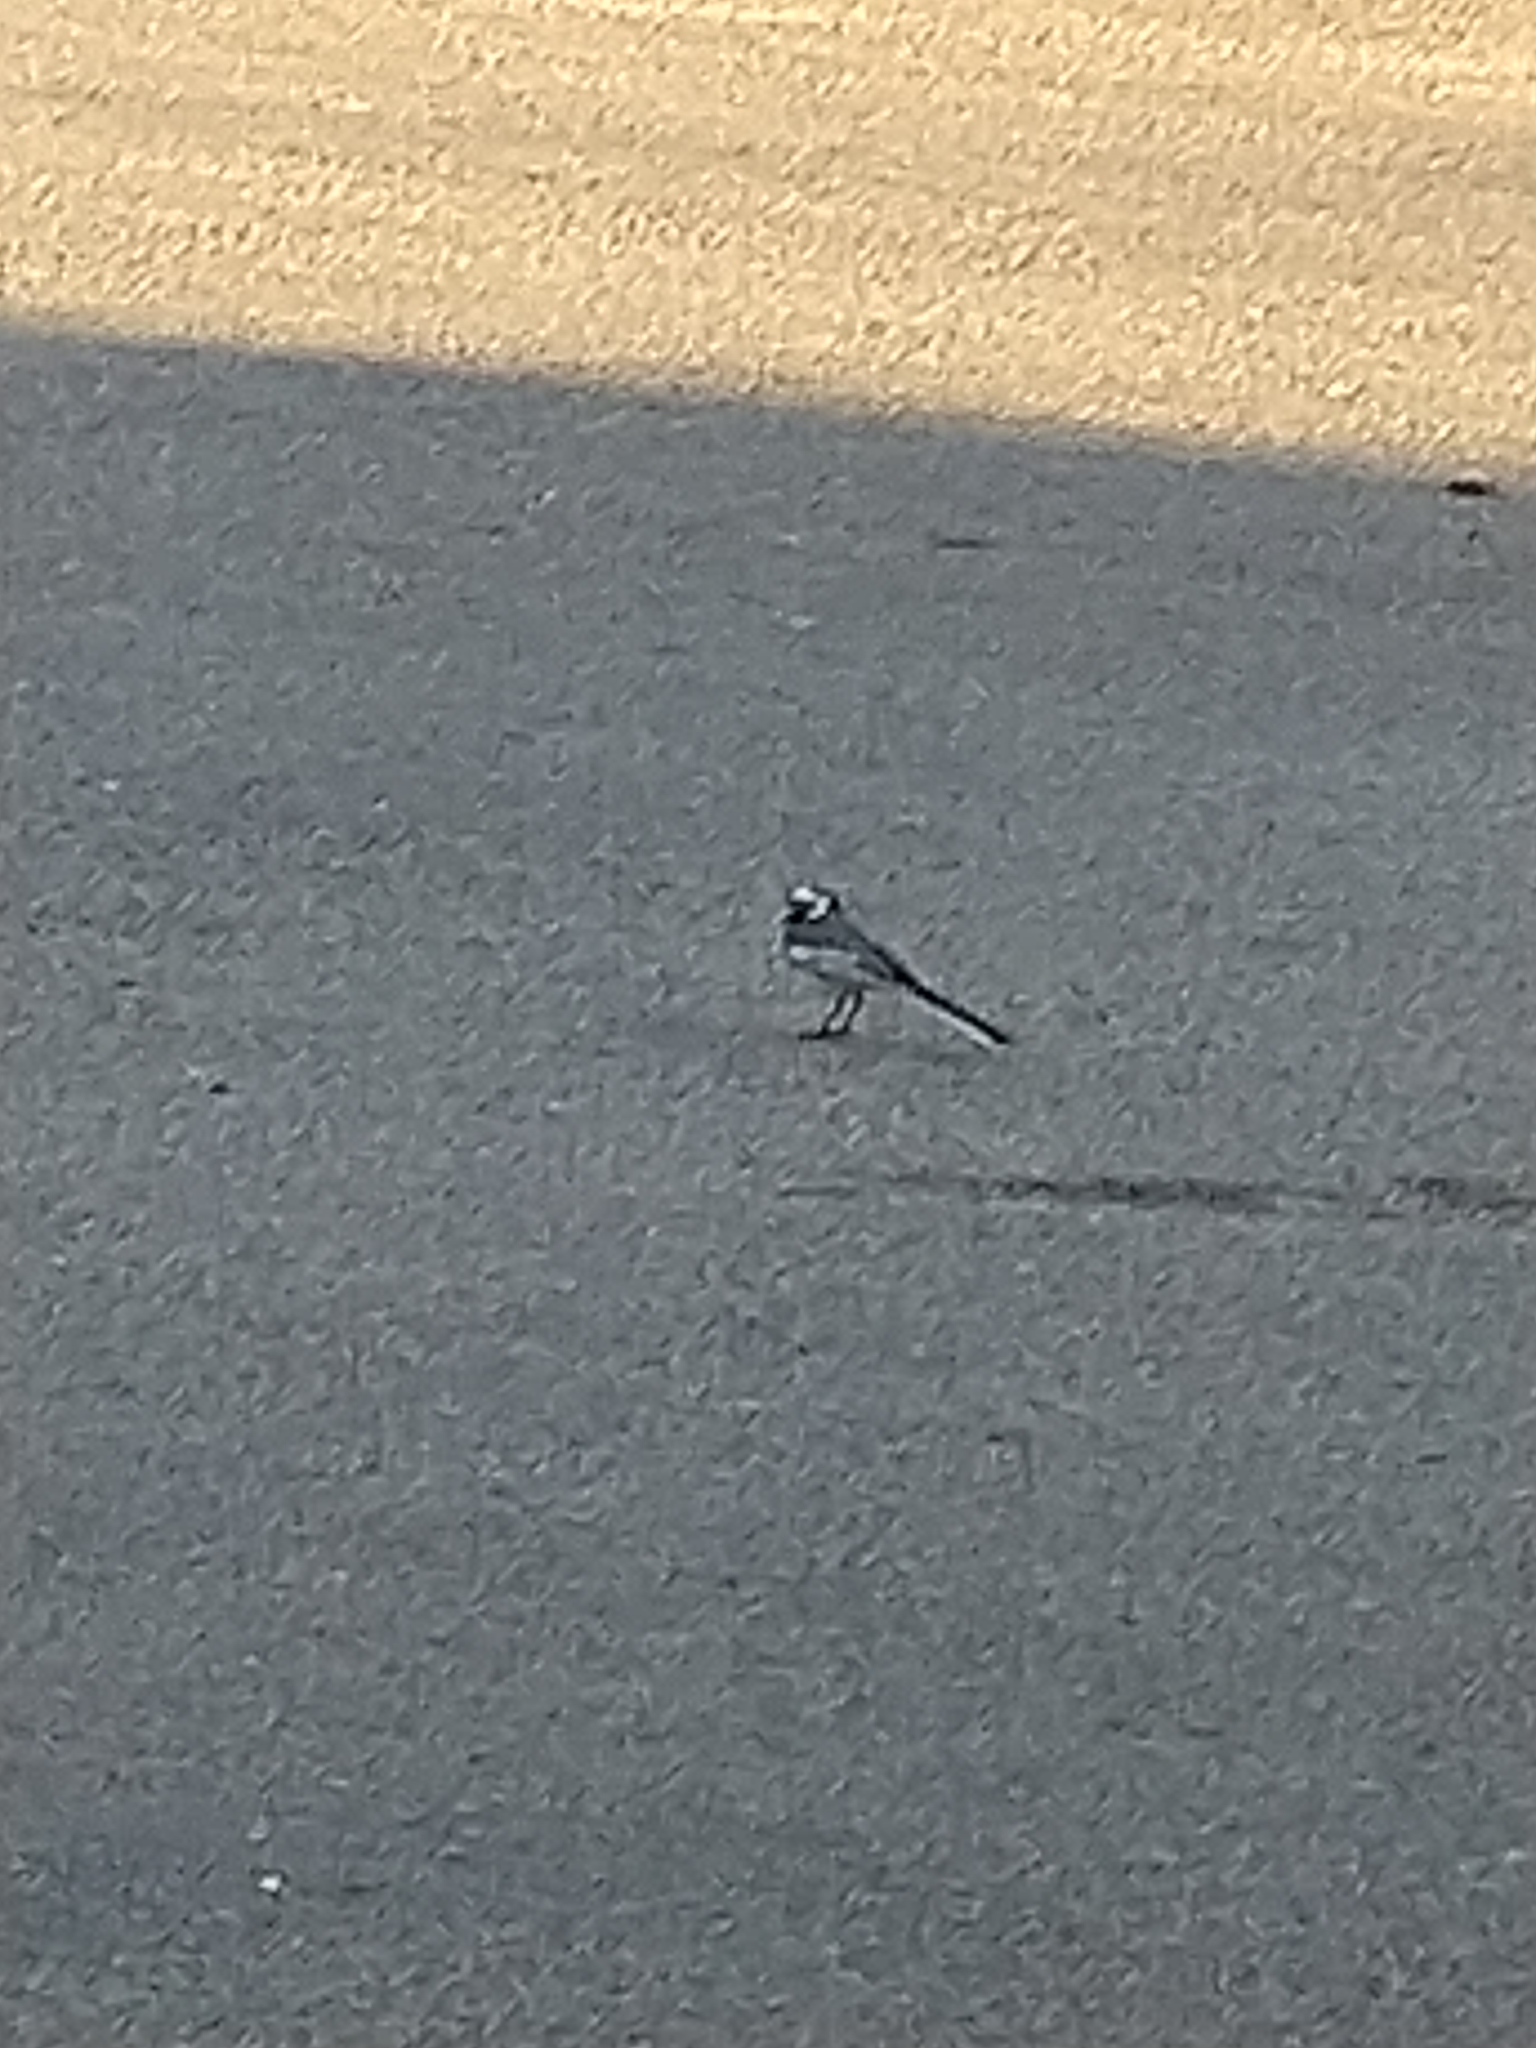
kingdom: Animalia
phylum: Chordata
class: Aves
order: Passeriformes
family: Motacillidae
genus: Motacilla
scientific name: Motacilla alba
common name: White wagtail
